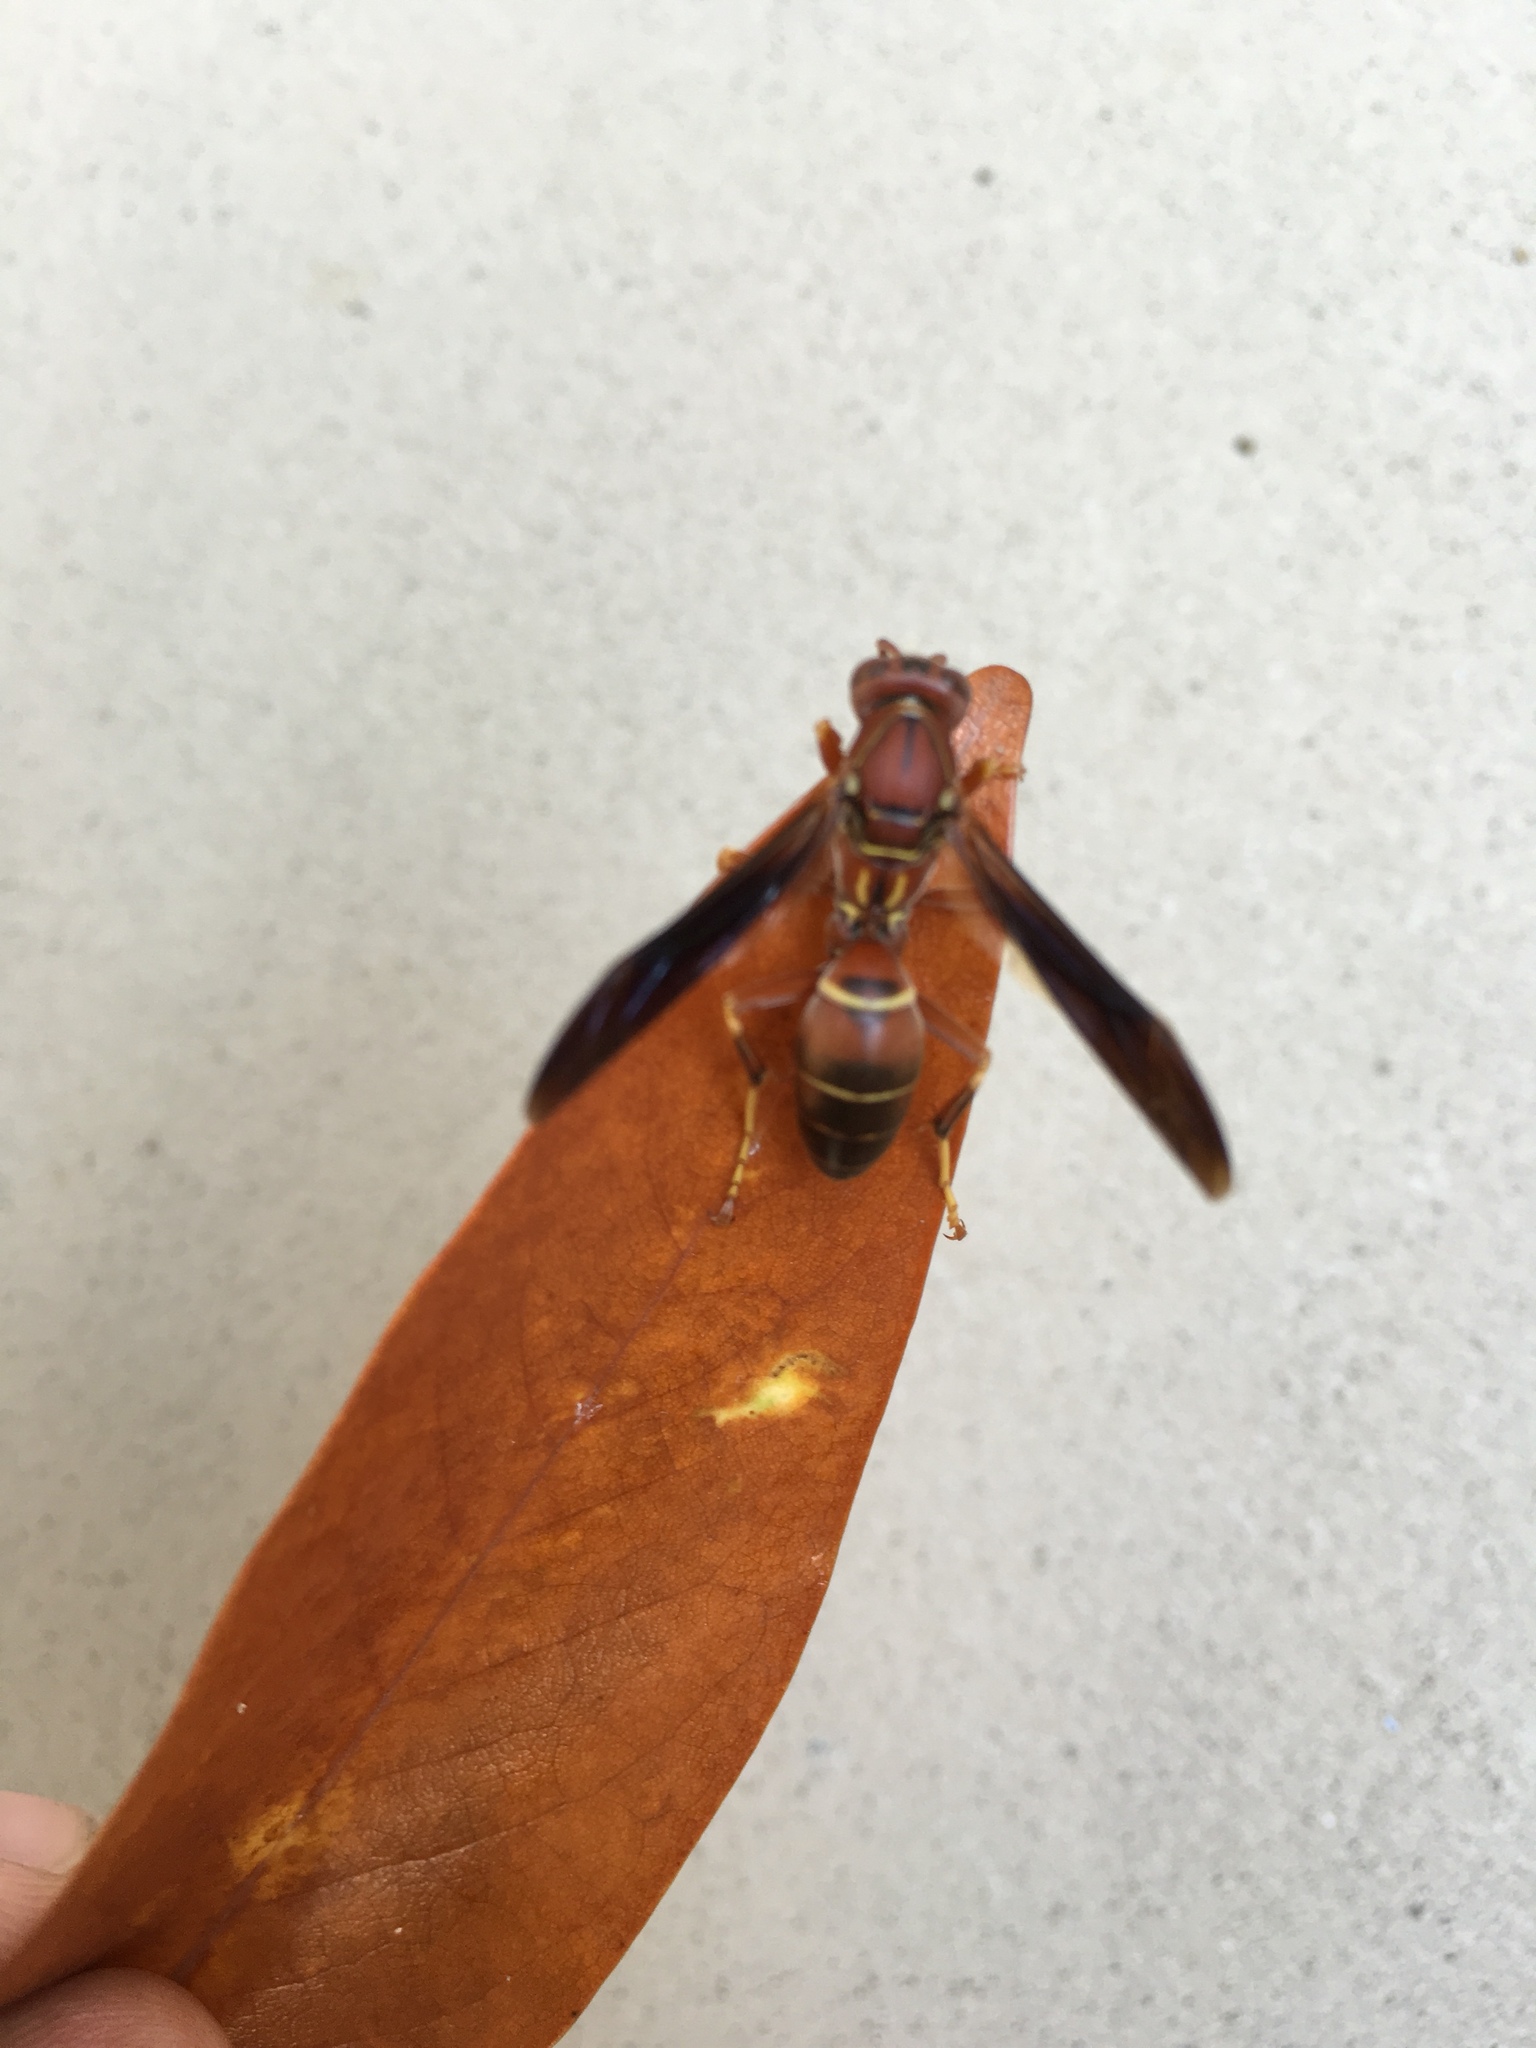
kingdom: Animalia
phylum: Arthropoda
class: Insecta
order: Hymenoptera
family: Eumenidae
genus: Polistes
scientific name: Polistes bellicosus
